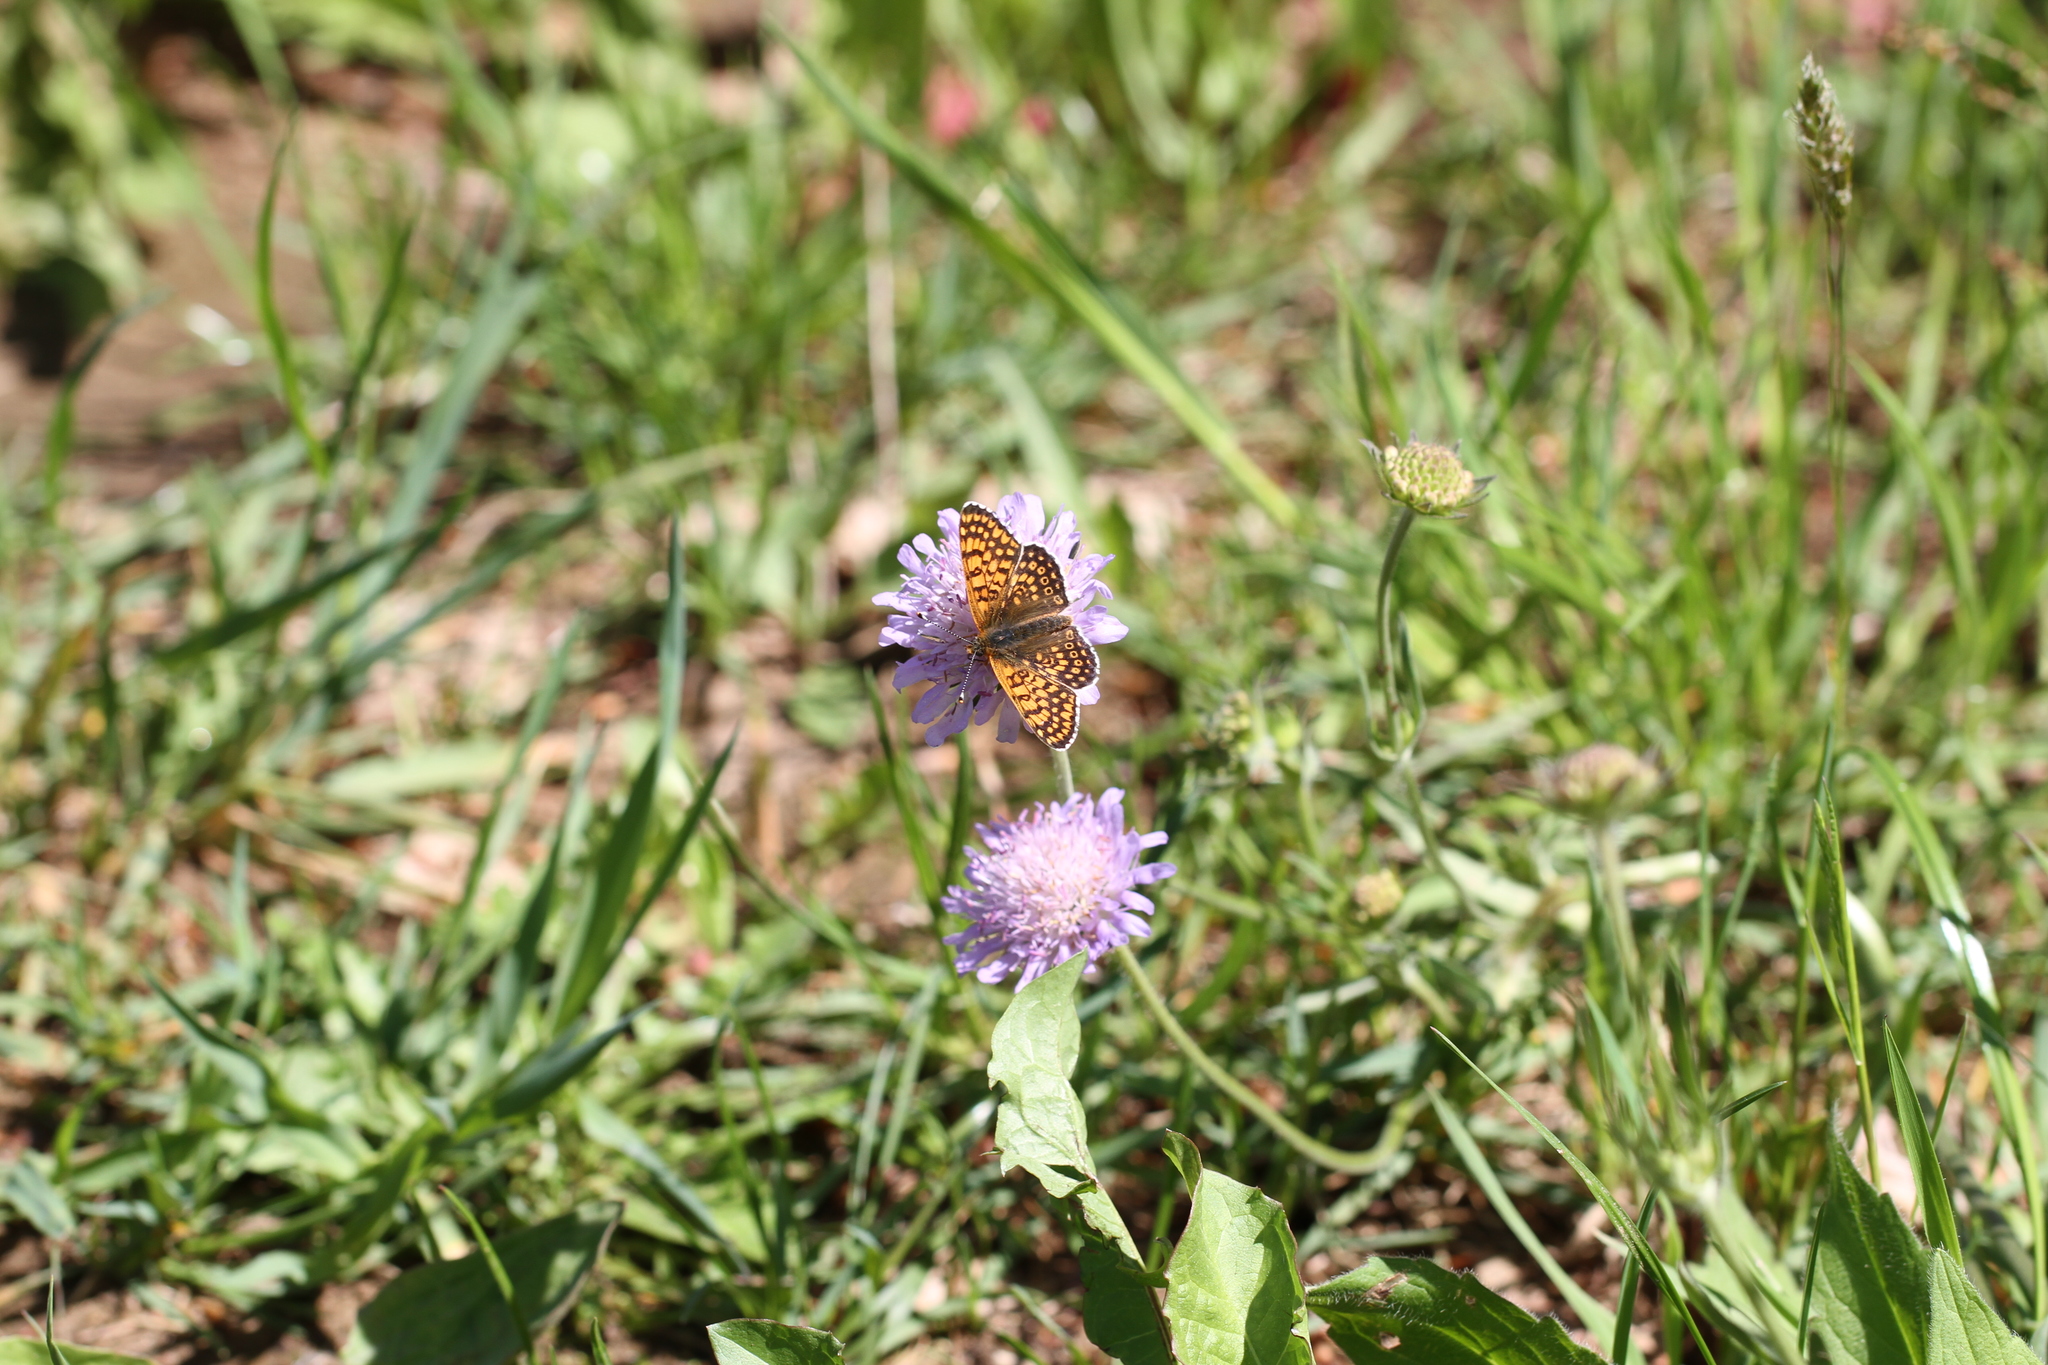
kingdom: Animalia
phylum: Arthropoda
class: Insecta
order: Lepidoptera
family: Nymphalidae
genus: Melitaea
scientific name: Melitaea cinxia
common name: Glanville fritillary
